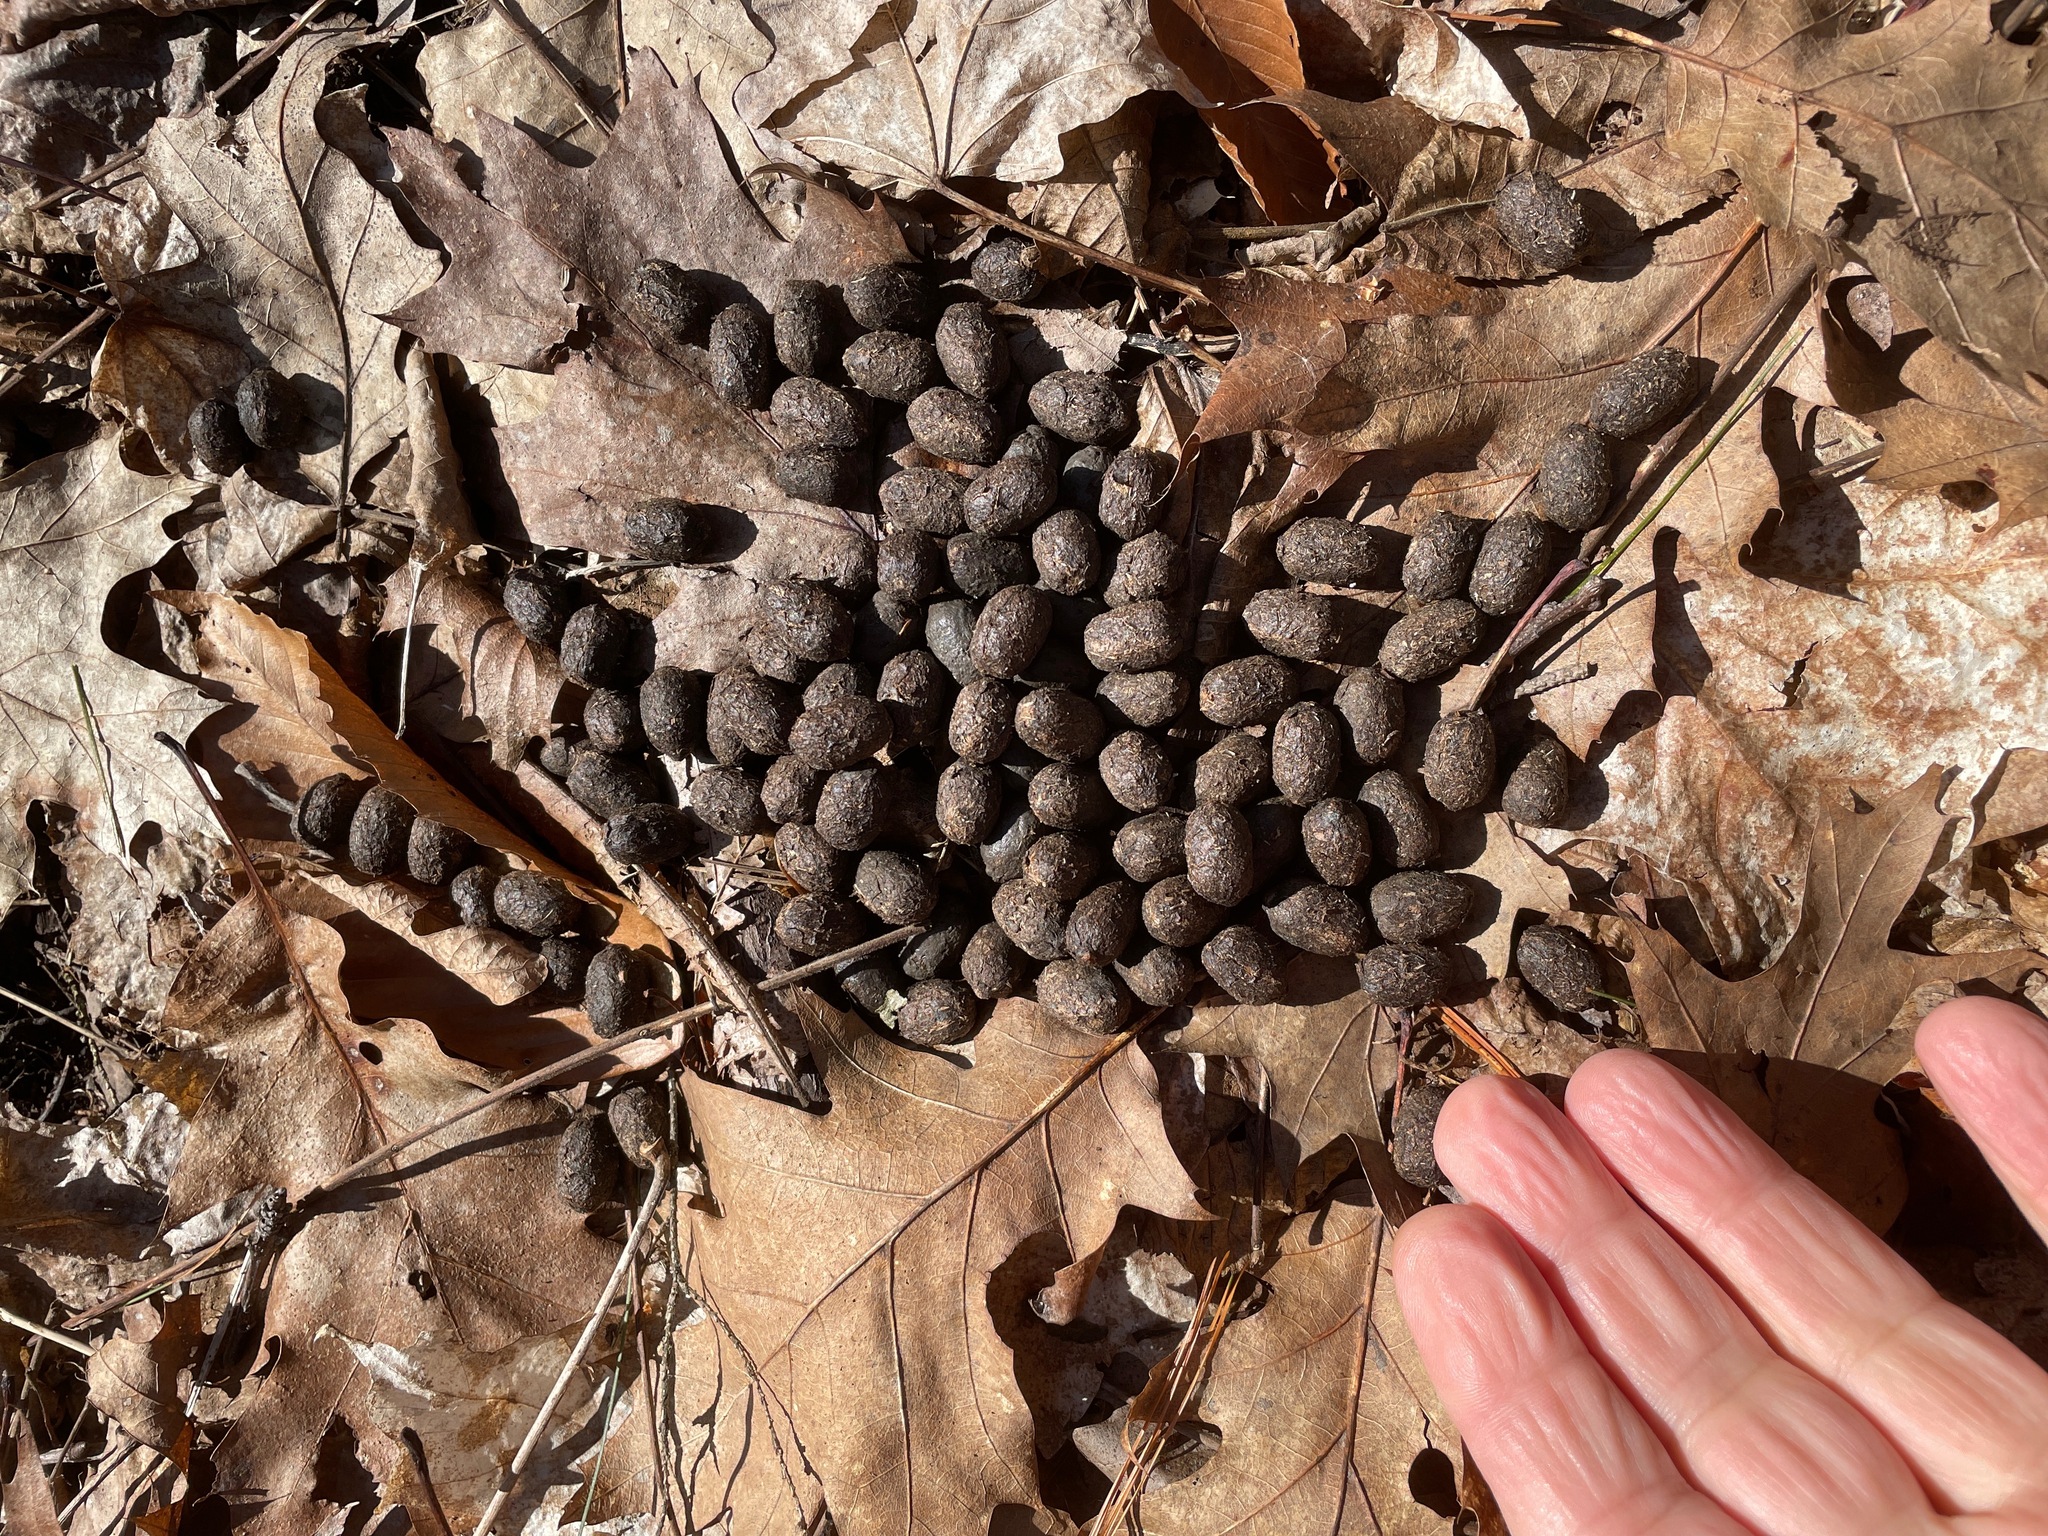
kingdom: Animalia
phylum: Chordata
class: Mammalia
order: Artiodactyla
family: Cervidae
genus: Odocoileus
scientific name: Odocoileus virginianus
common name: White-tailed deer
